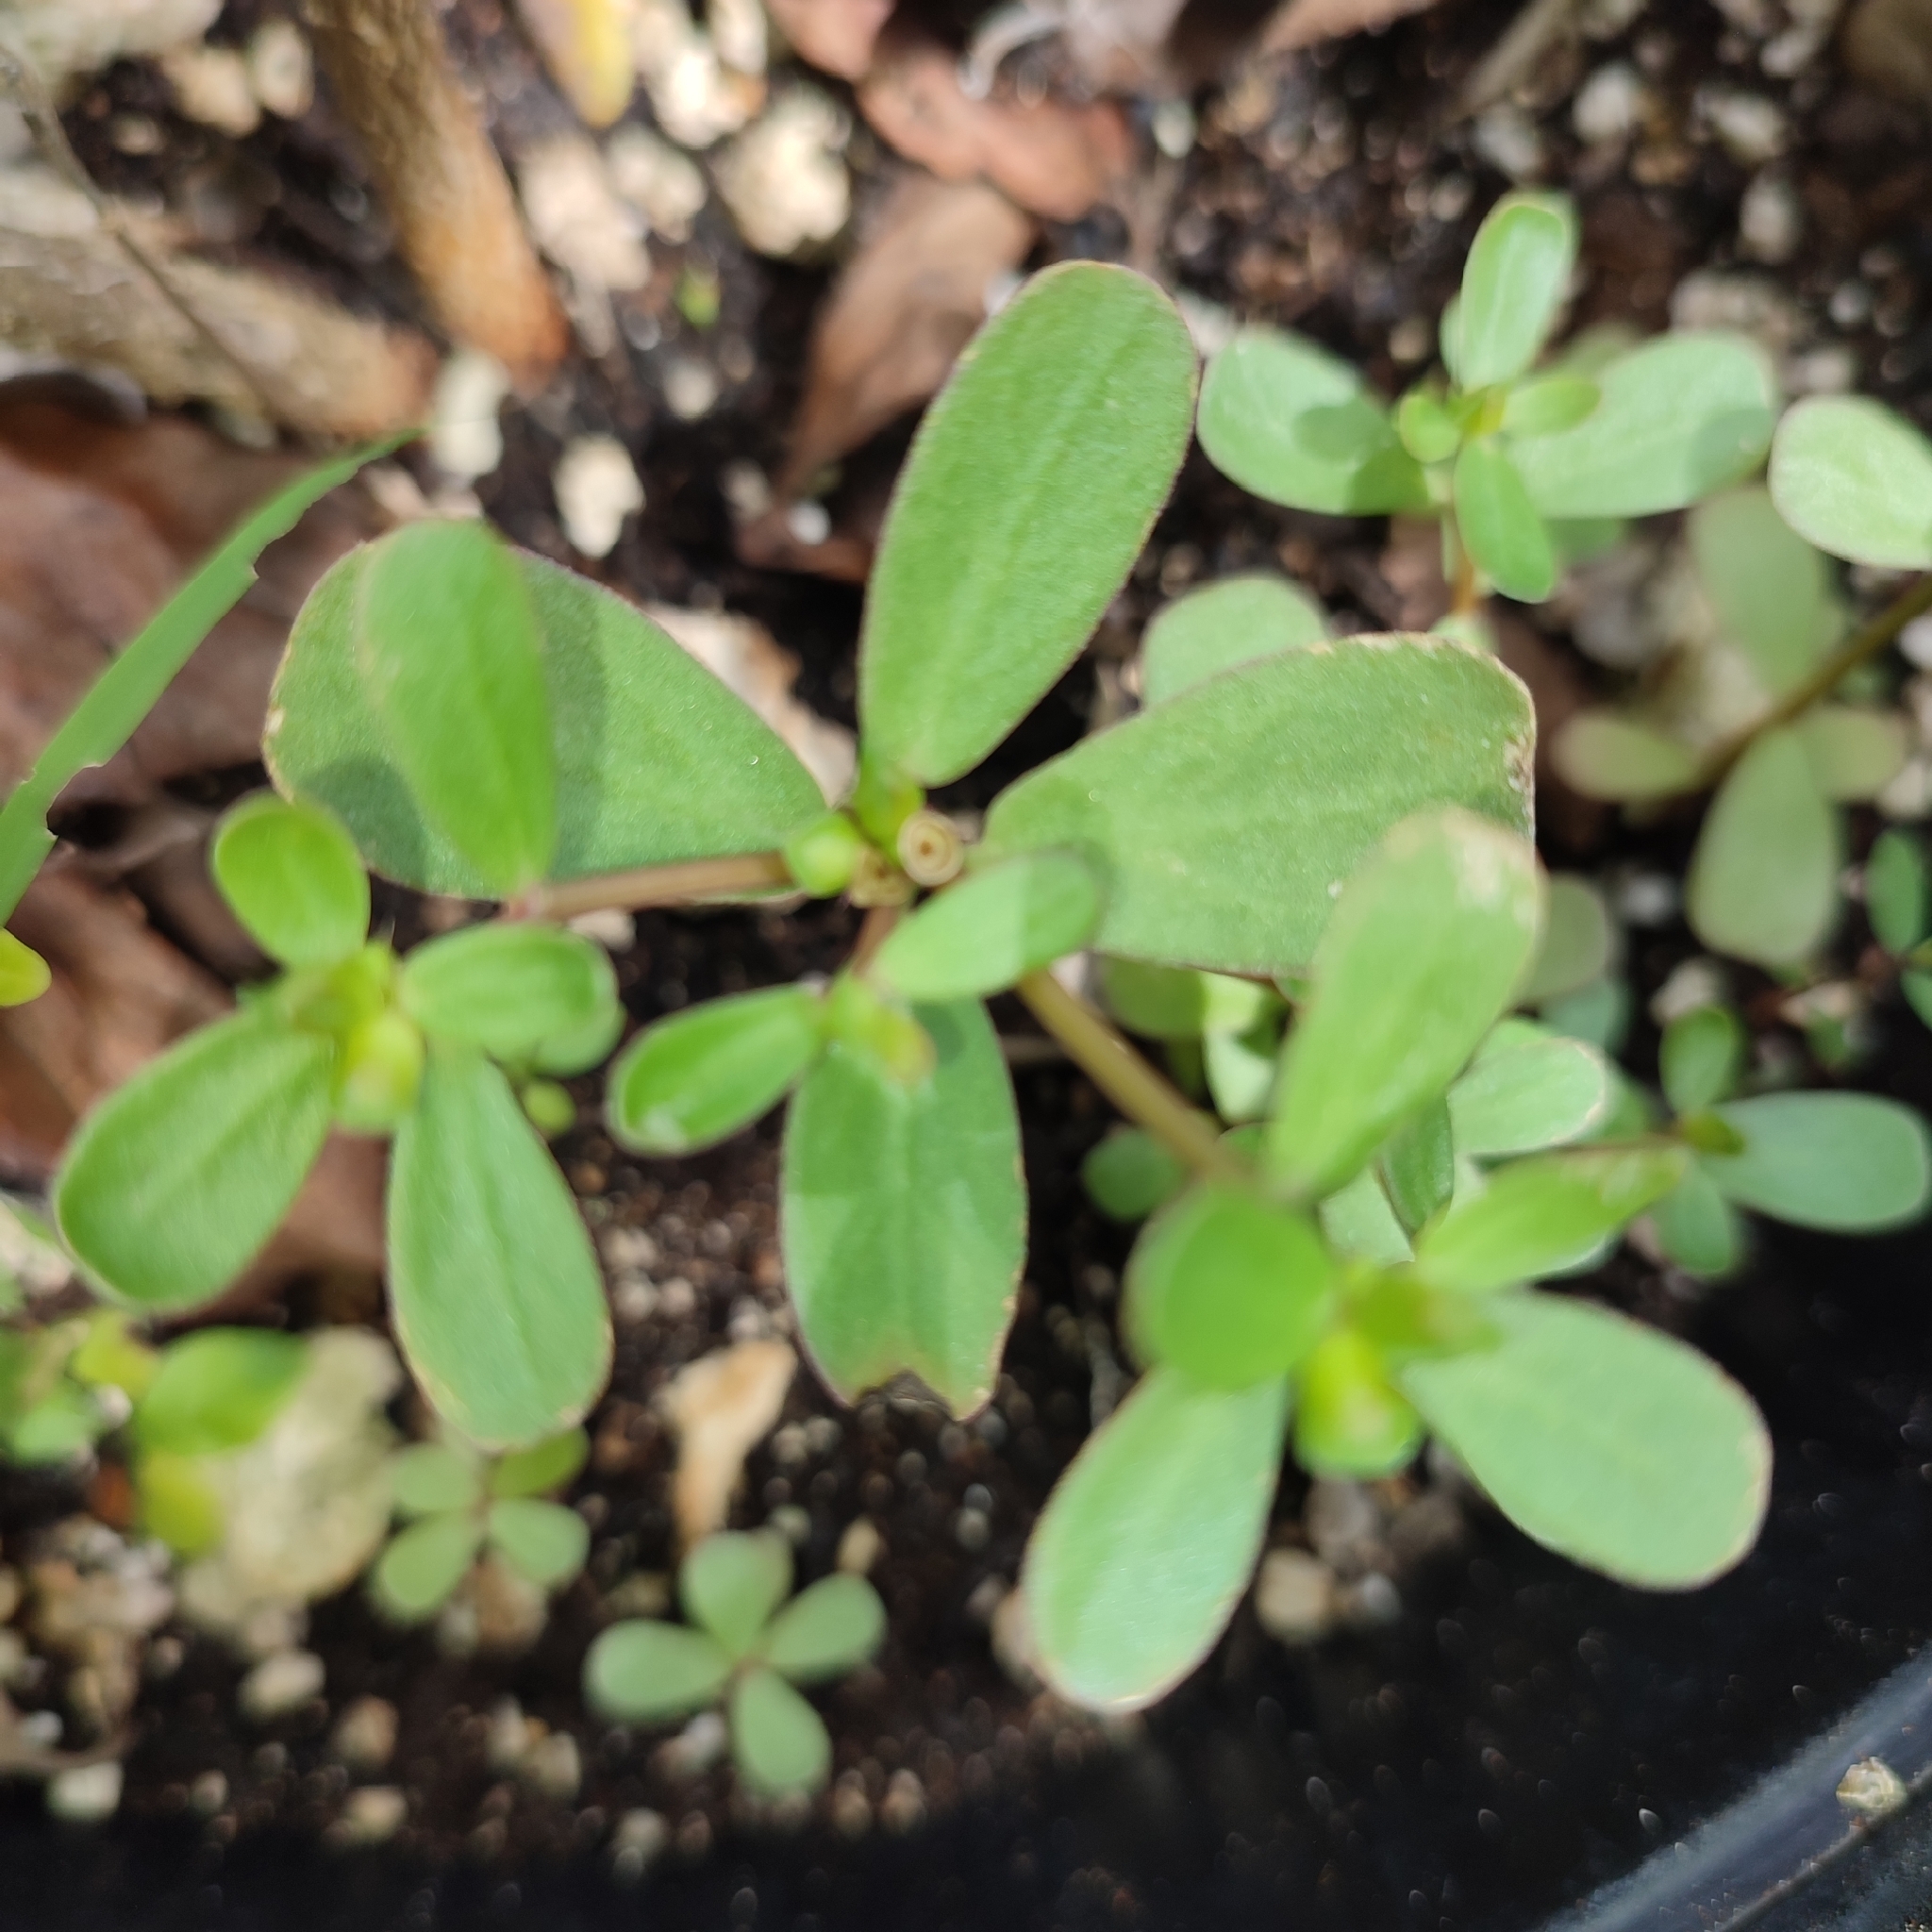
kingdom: Plantae
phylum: Tracheophyta
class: Magnoliopsida
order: Caryophyllales
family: Portulacaceae
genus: Portulaca
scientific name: Portulaca oleracea
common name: Common purslane
